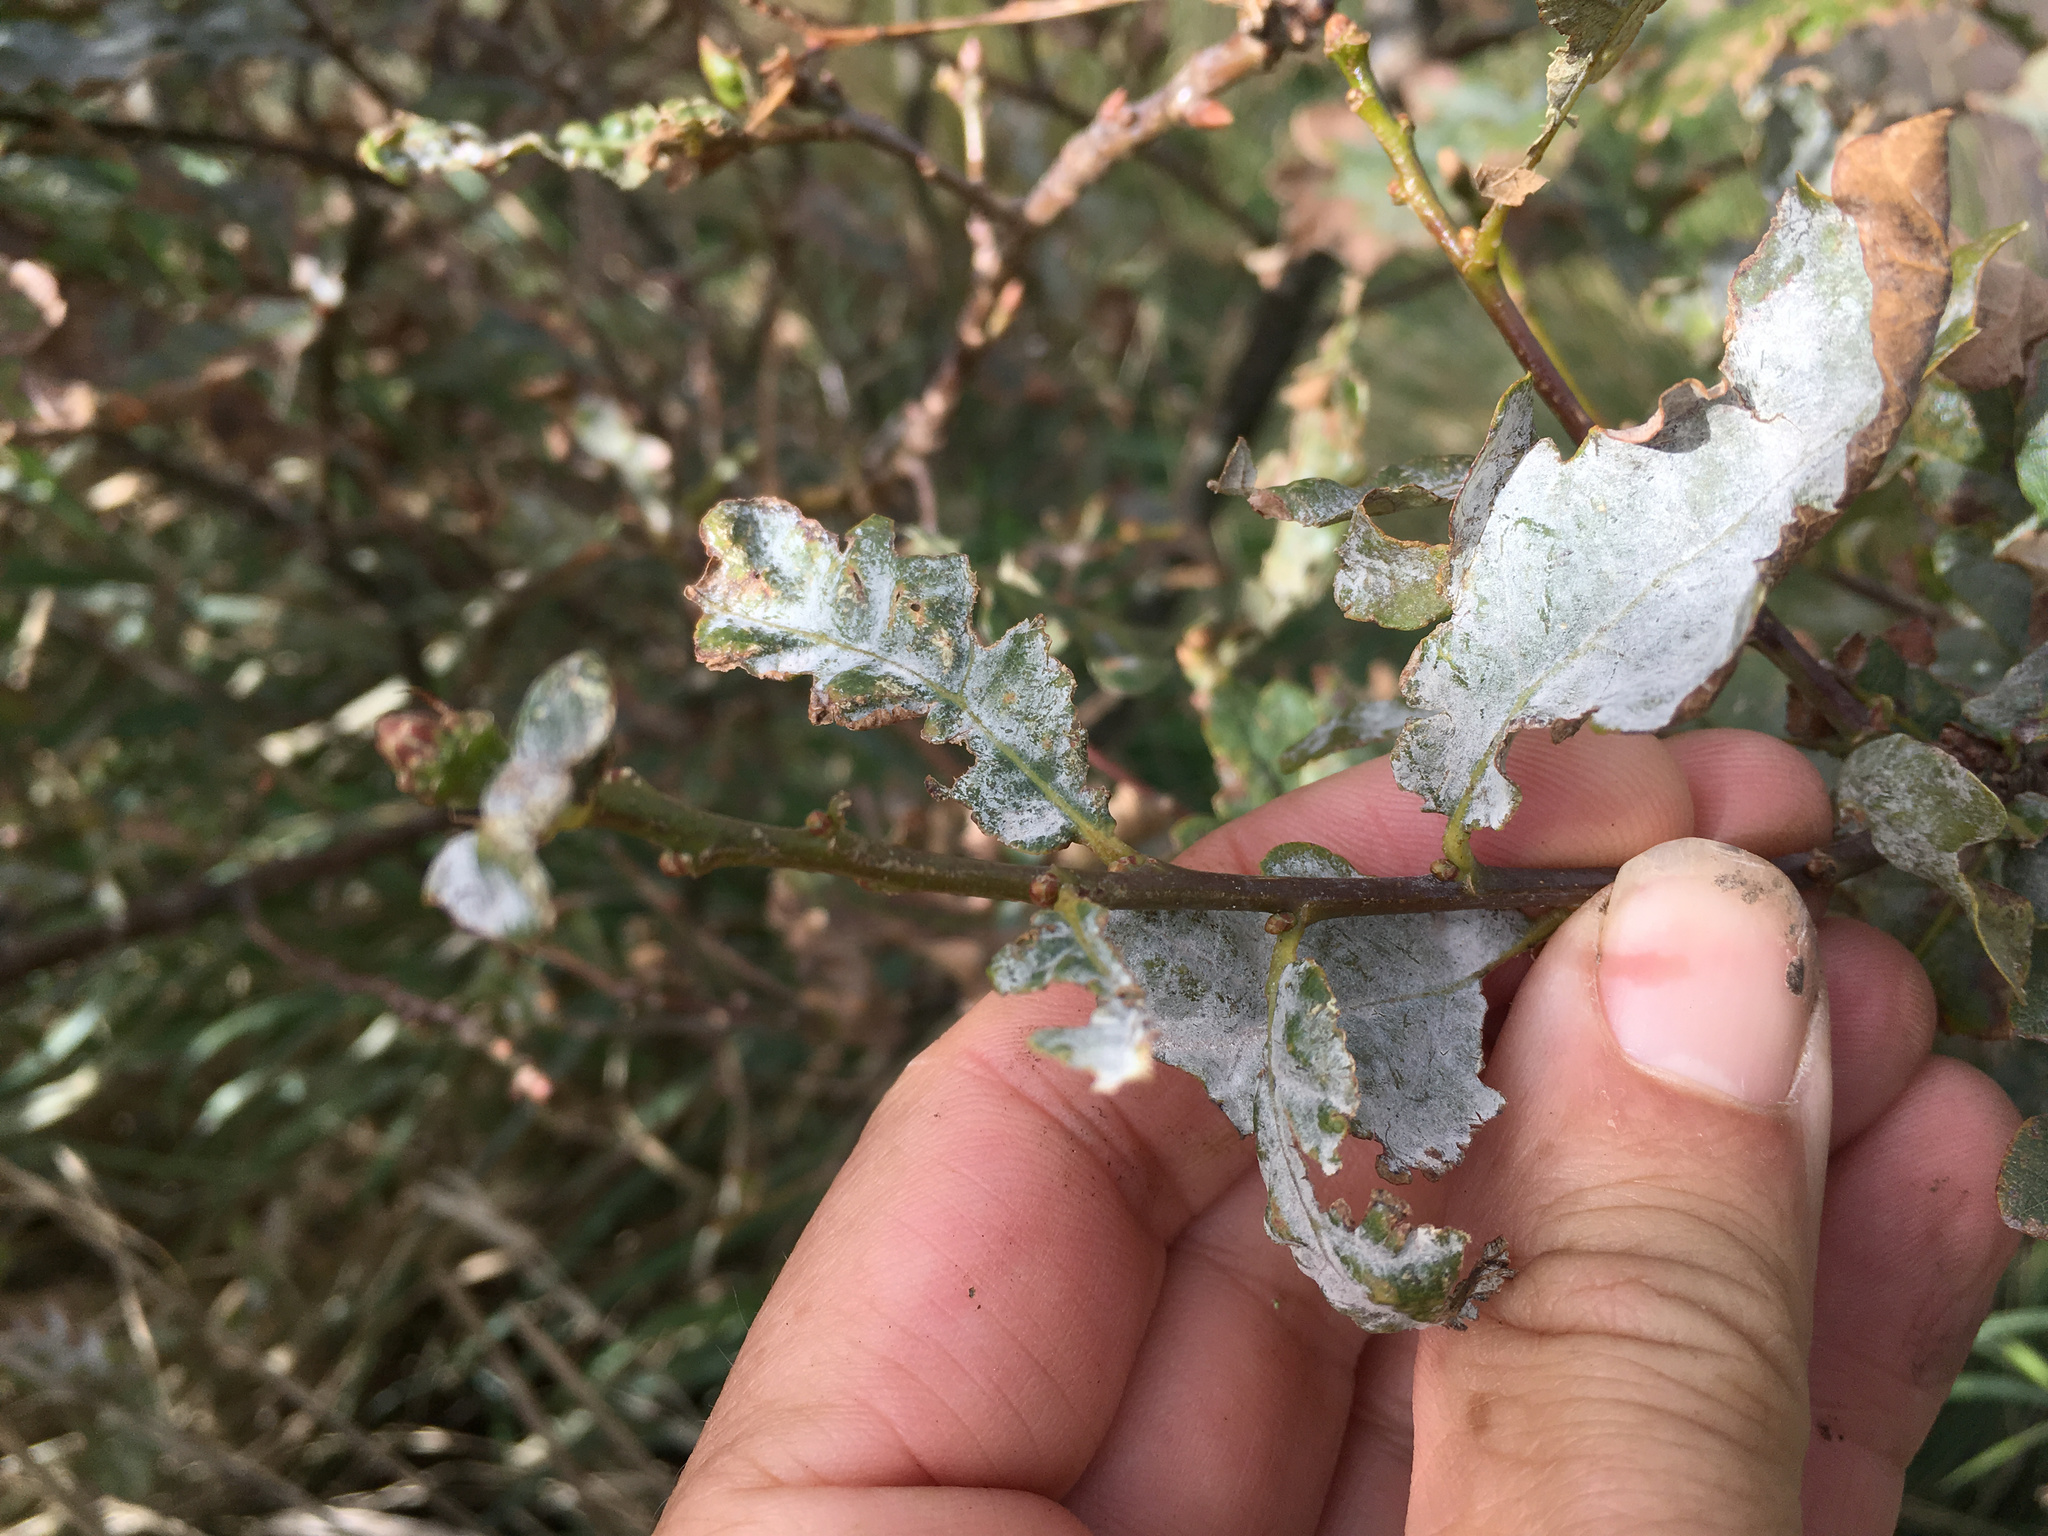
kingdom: Fungi
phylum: Ascomycota
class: Leotiomycetes
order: Helotiales
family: Erysiphaceae
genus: Erysiphe
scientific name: Erysiphe alphitoides
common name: Oak mildew
